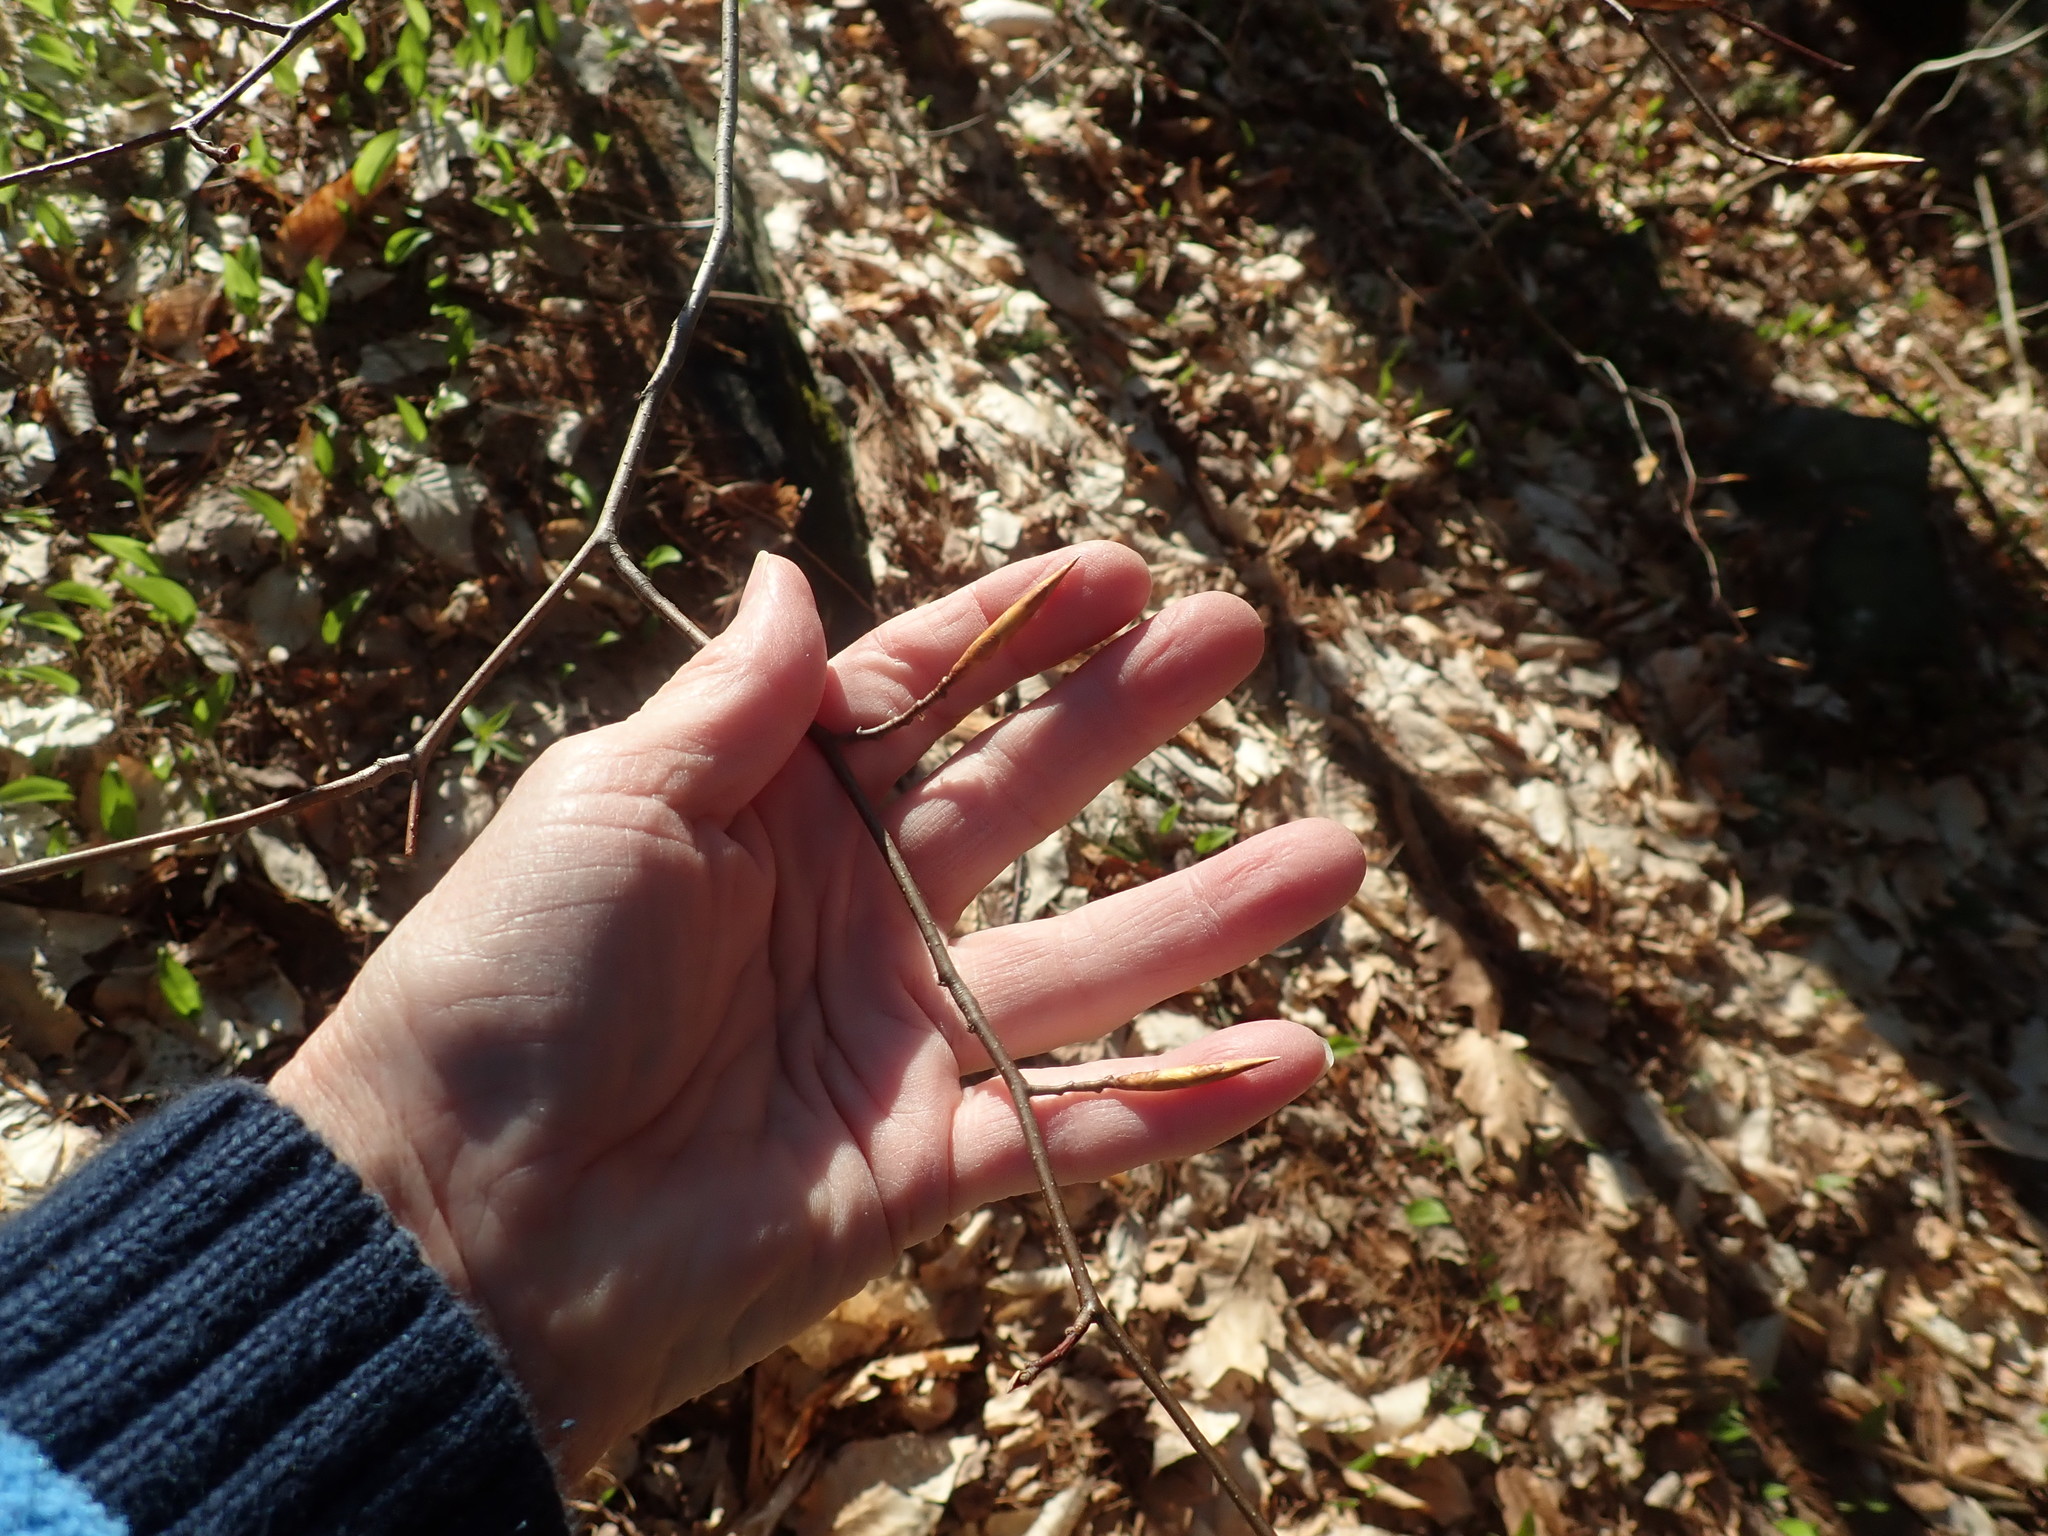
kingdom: Plantae
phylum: Tracheophyta
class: Magnoliopsida
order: Fagales
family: Fagaceae
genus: Fagus
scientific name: Fagus grandifolia
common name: American beech
